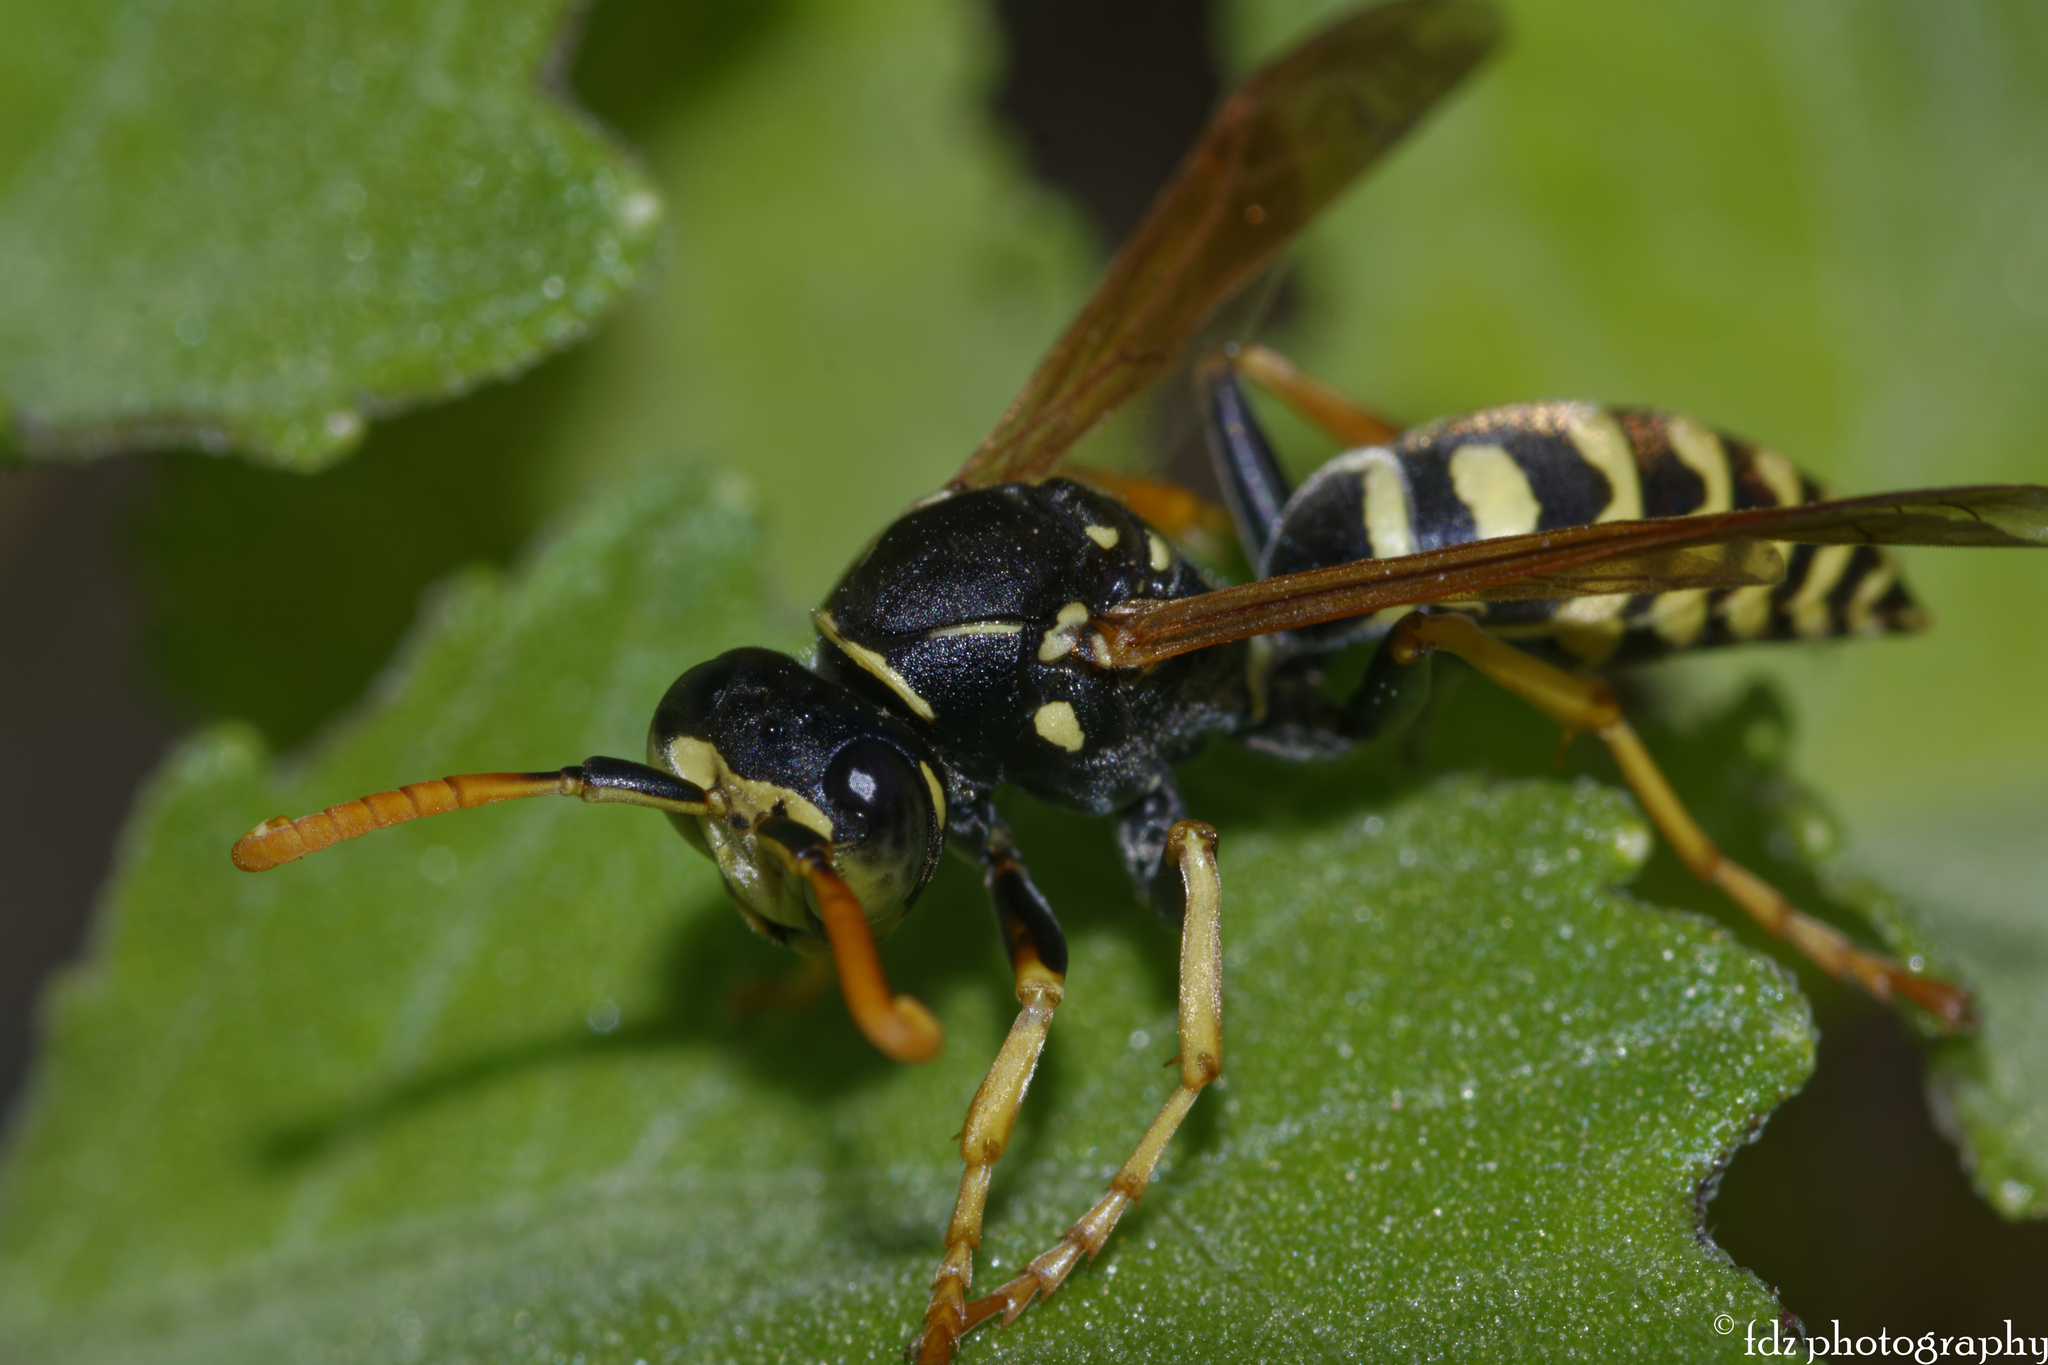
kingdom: Animalia
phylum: Arthropoda
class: Insecta
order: Hymenoptera
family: Eumenidae
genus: Polistes
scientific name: Polistes dominula
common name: Paper wasp
